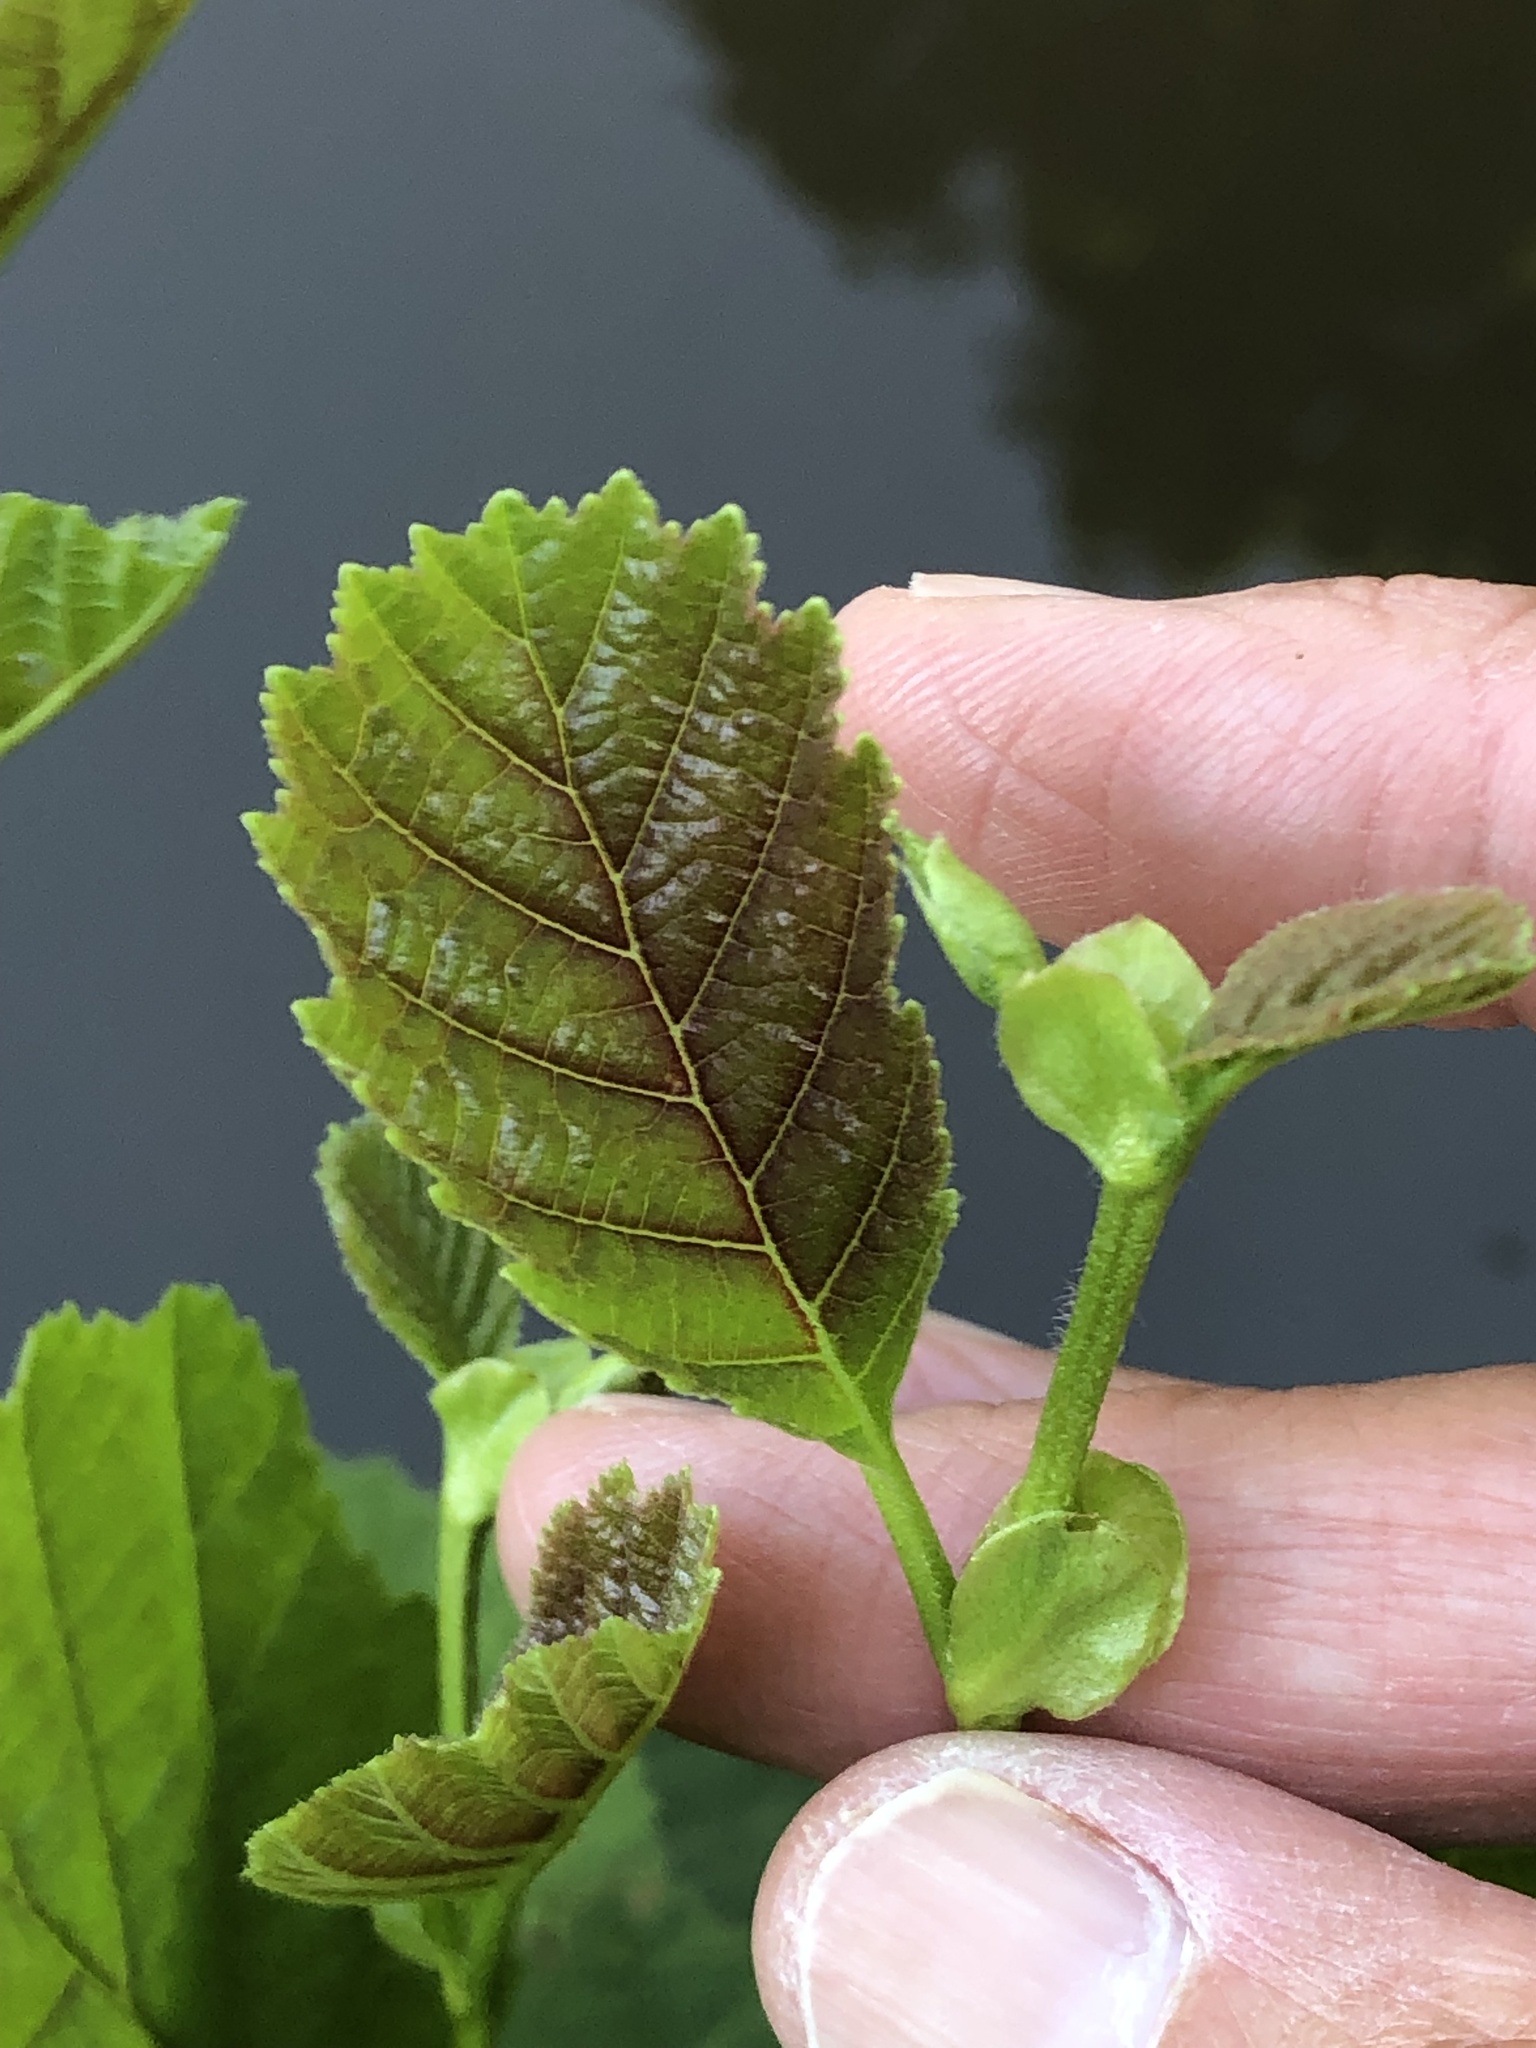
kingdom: Plantae
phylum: Tracheophyta
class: Magnoliopsida
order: Fagales
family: Betulaceae
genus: Alnus
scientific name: Alnus glutinosa
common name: Black alder
